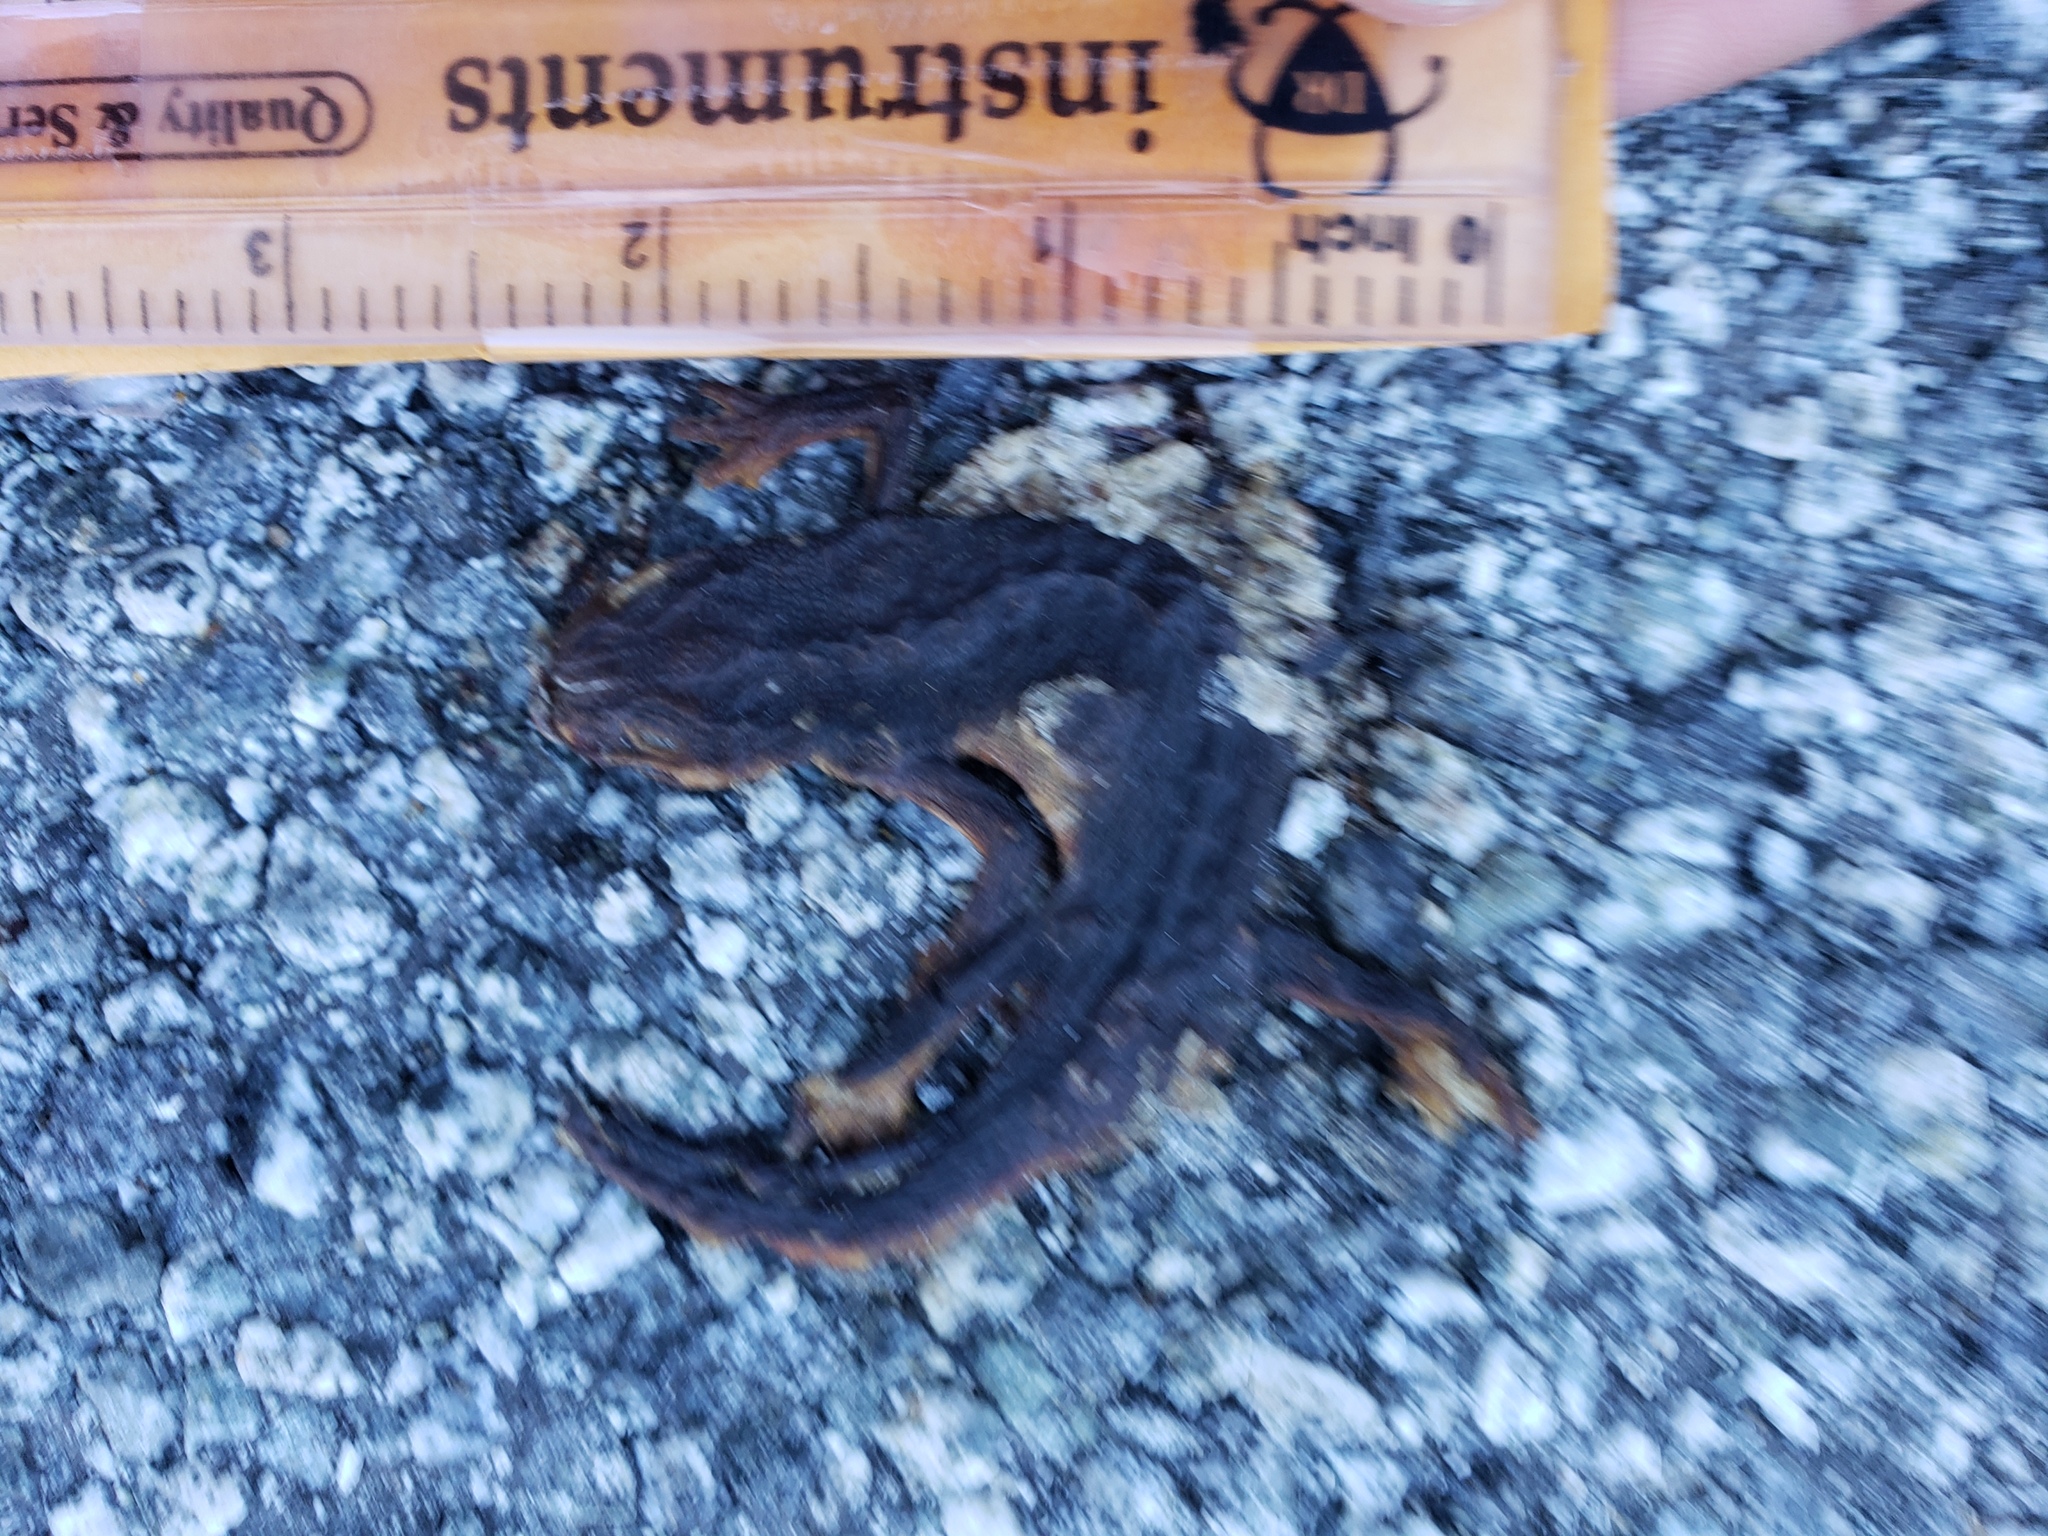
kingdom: Animalia
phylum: Chordata
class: Amphibia
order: Caudata
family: Salamandridae
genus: Taricha
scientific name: Taricha
